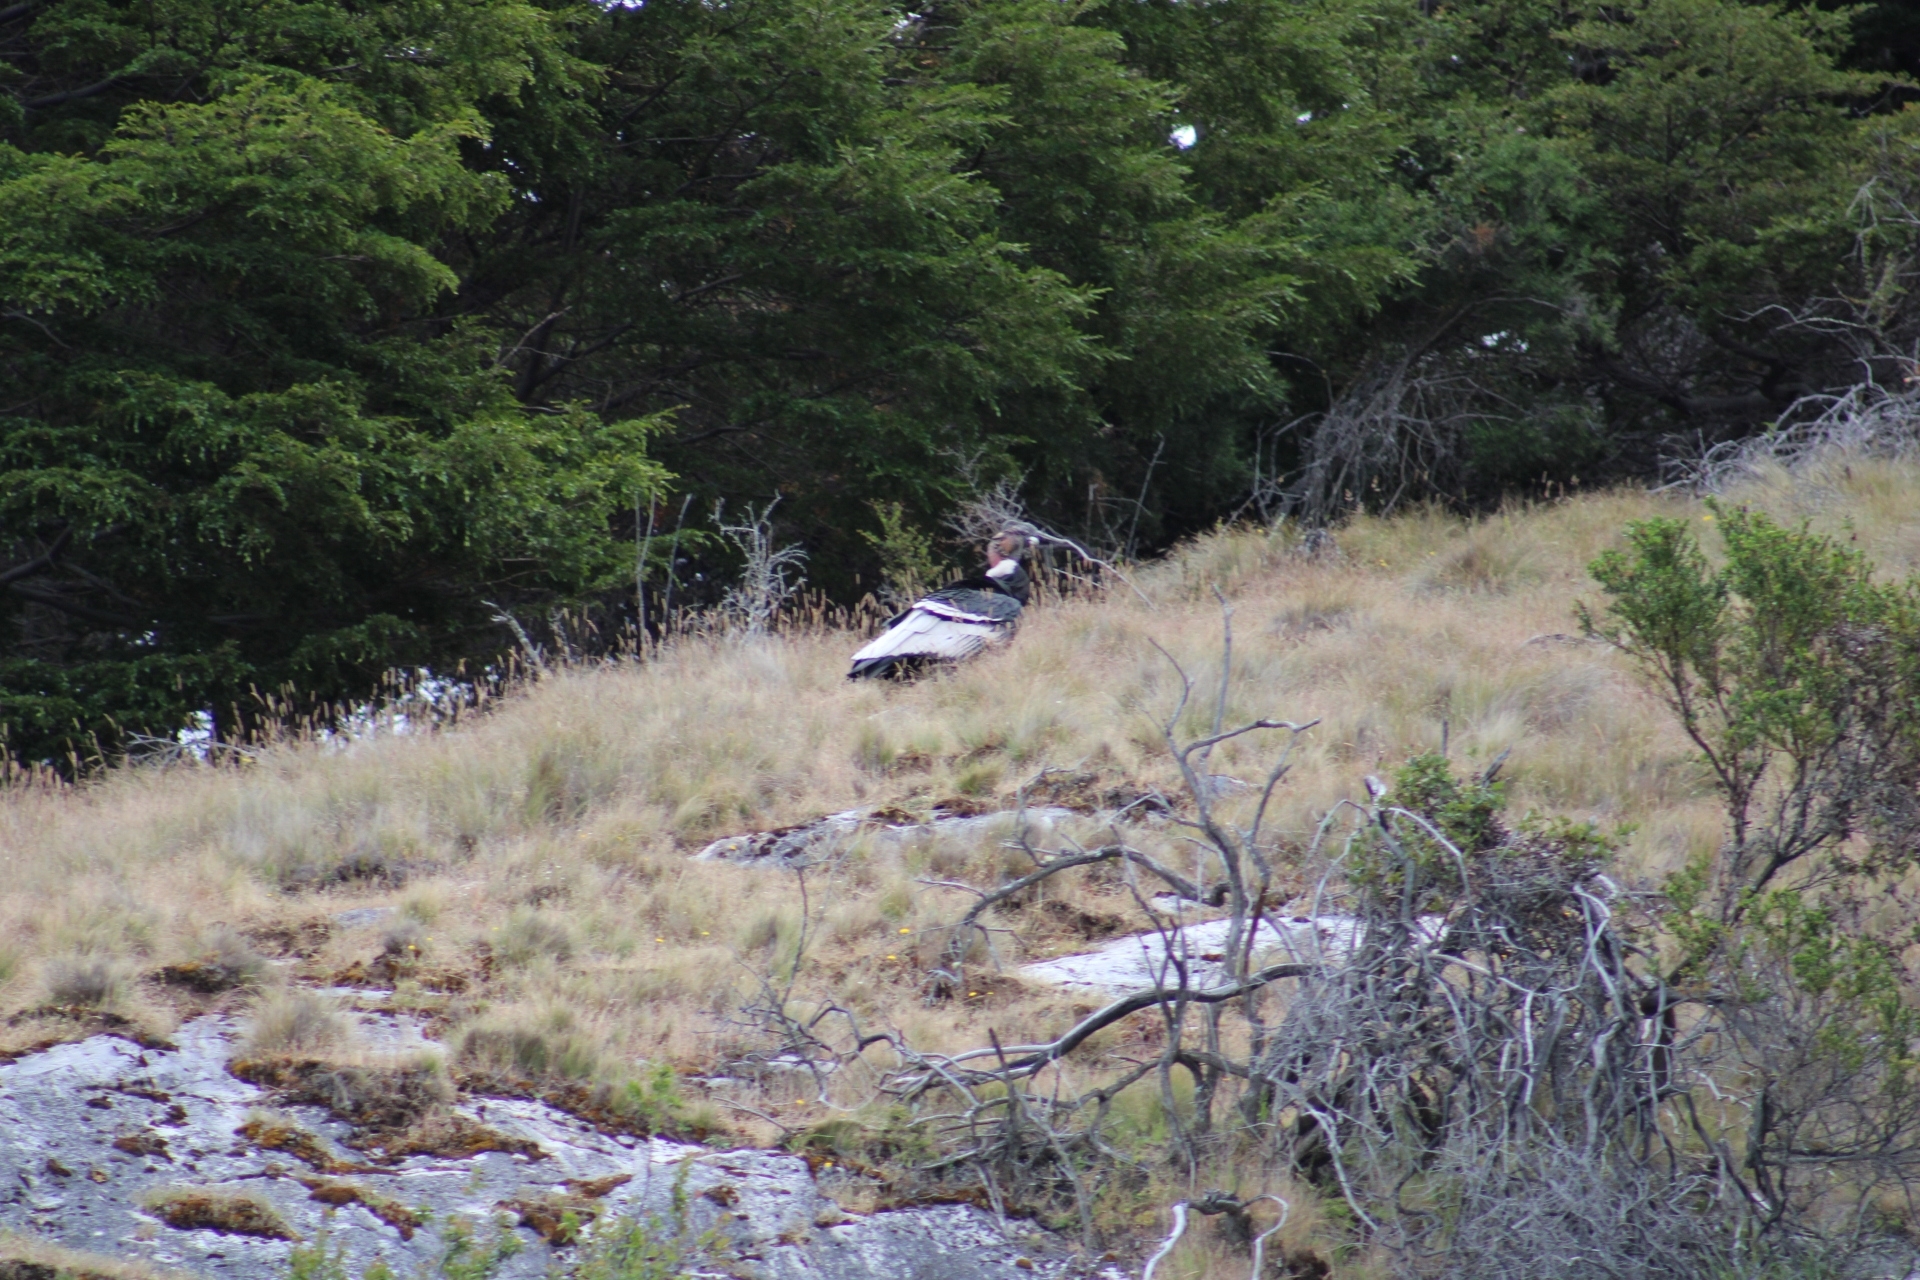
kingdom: Animalia
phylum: Chordata
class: Aves
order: Accipitriformes
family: Cathartidae
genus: Vultur
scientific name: Vultur gryphus
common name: Andean condor
